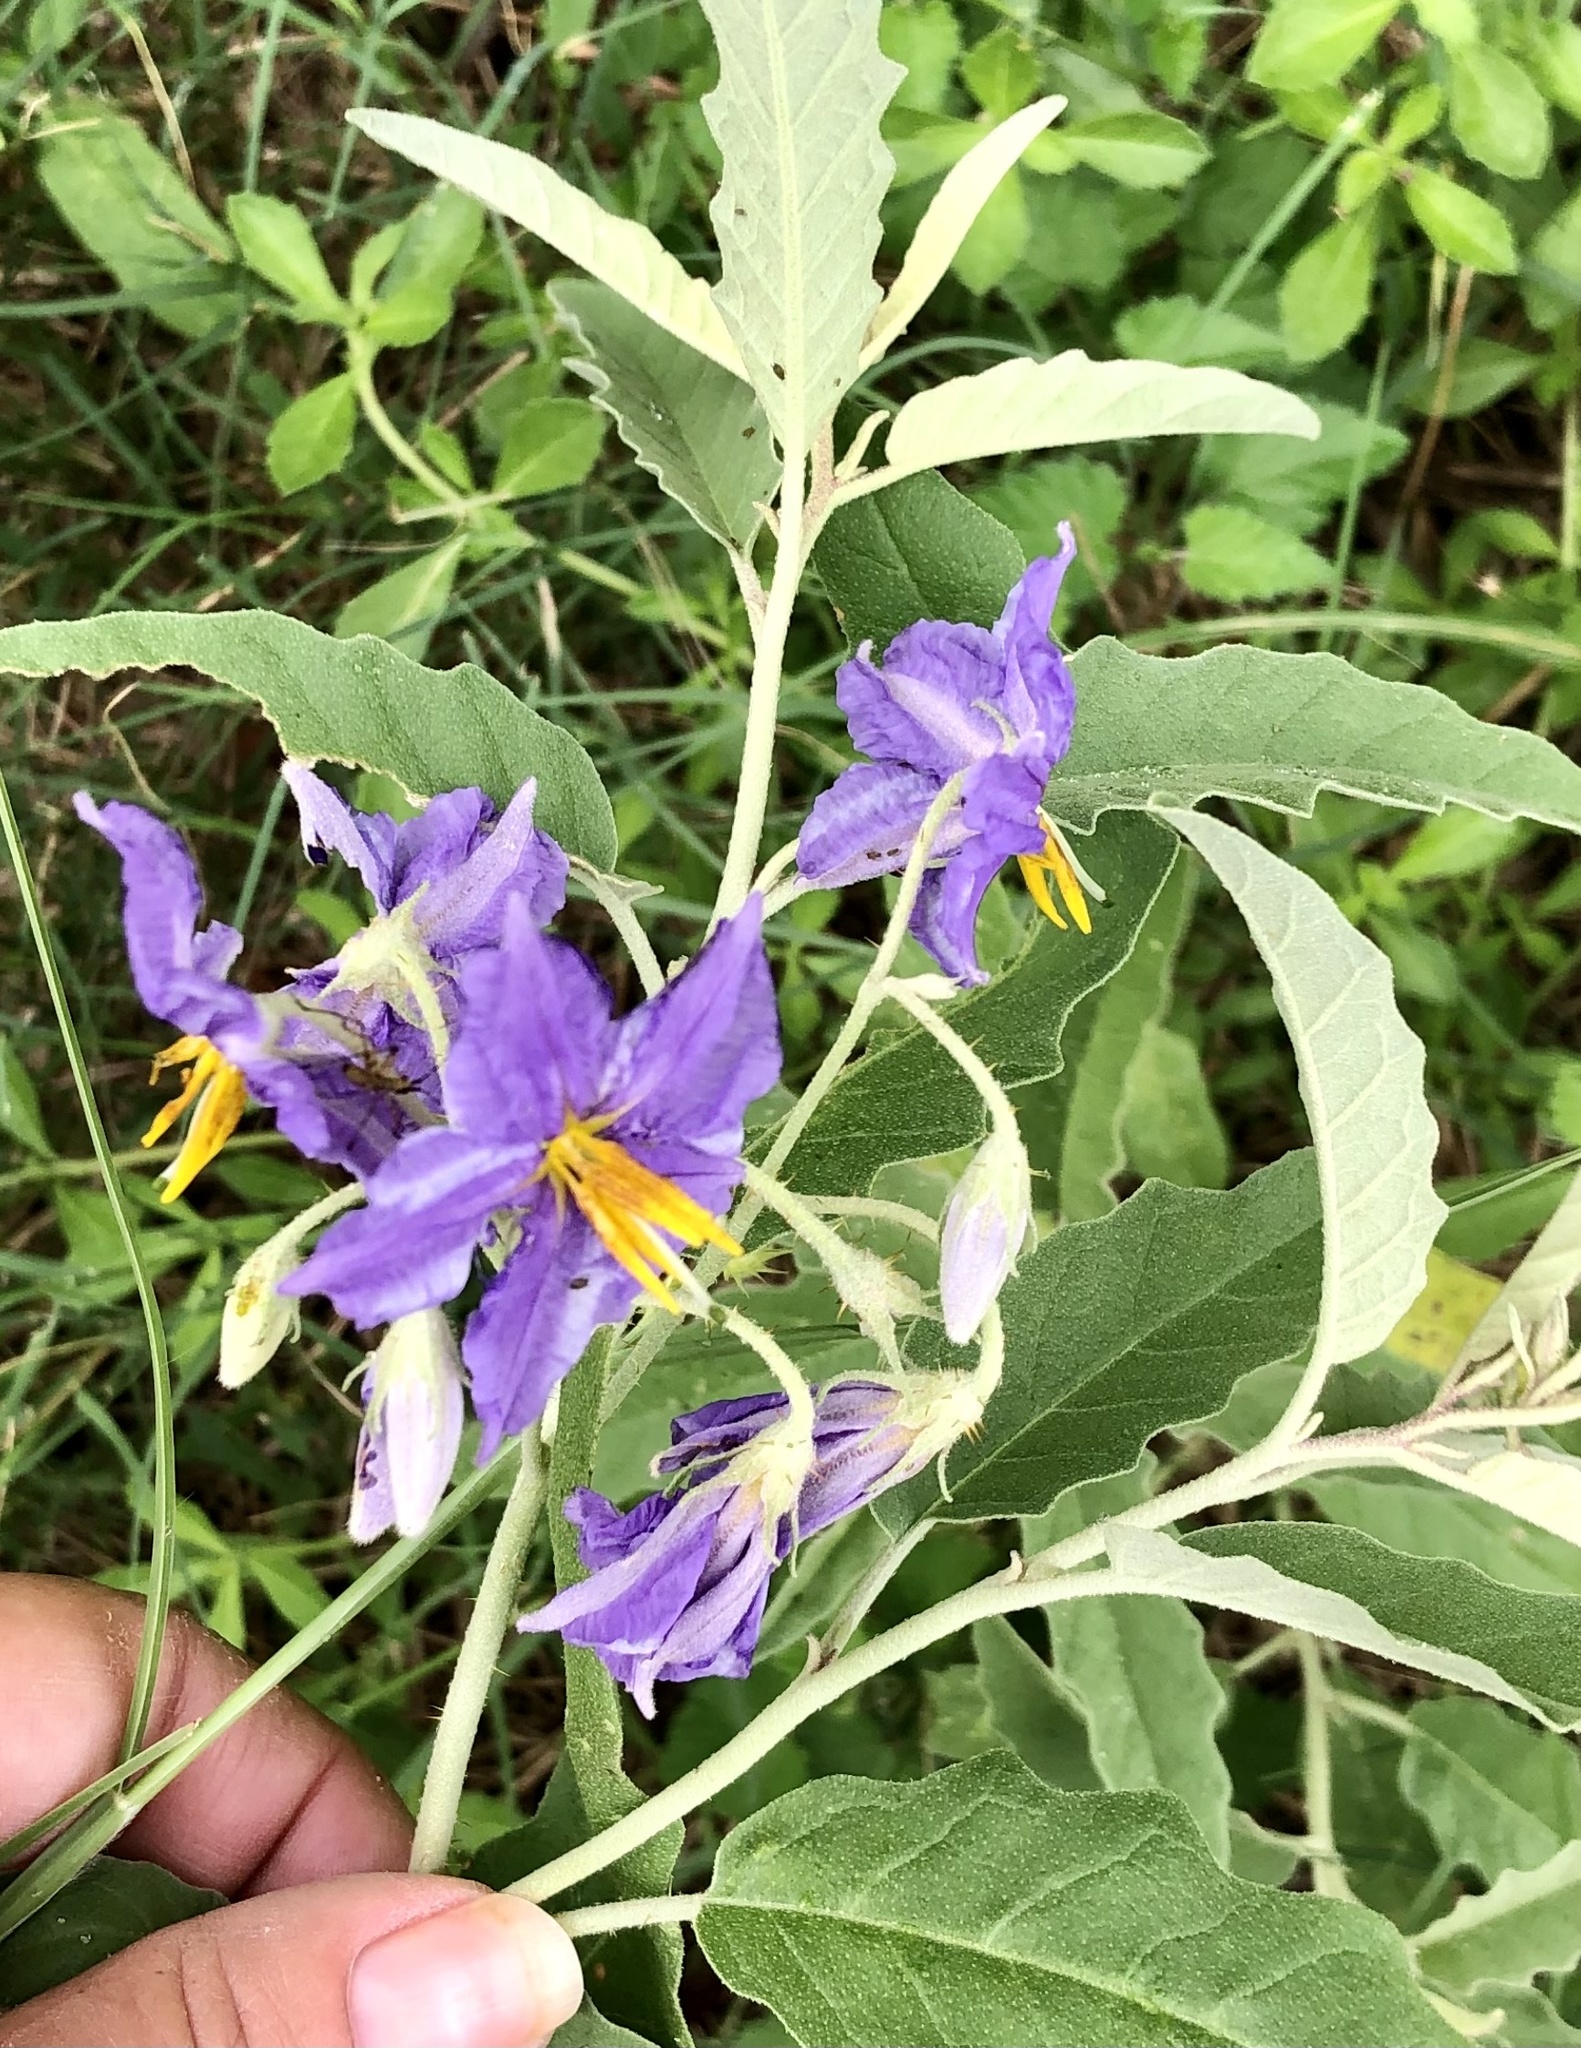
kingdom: Plantae
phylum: Tracheophyta
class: Magnoliopsida
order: Solanales
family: Solanaceae
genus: Solanum
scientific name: Solanum elaeagnifolium
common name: Silverleaf nightshade
